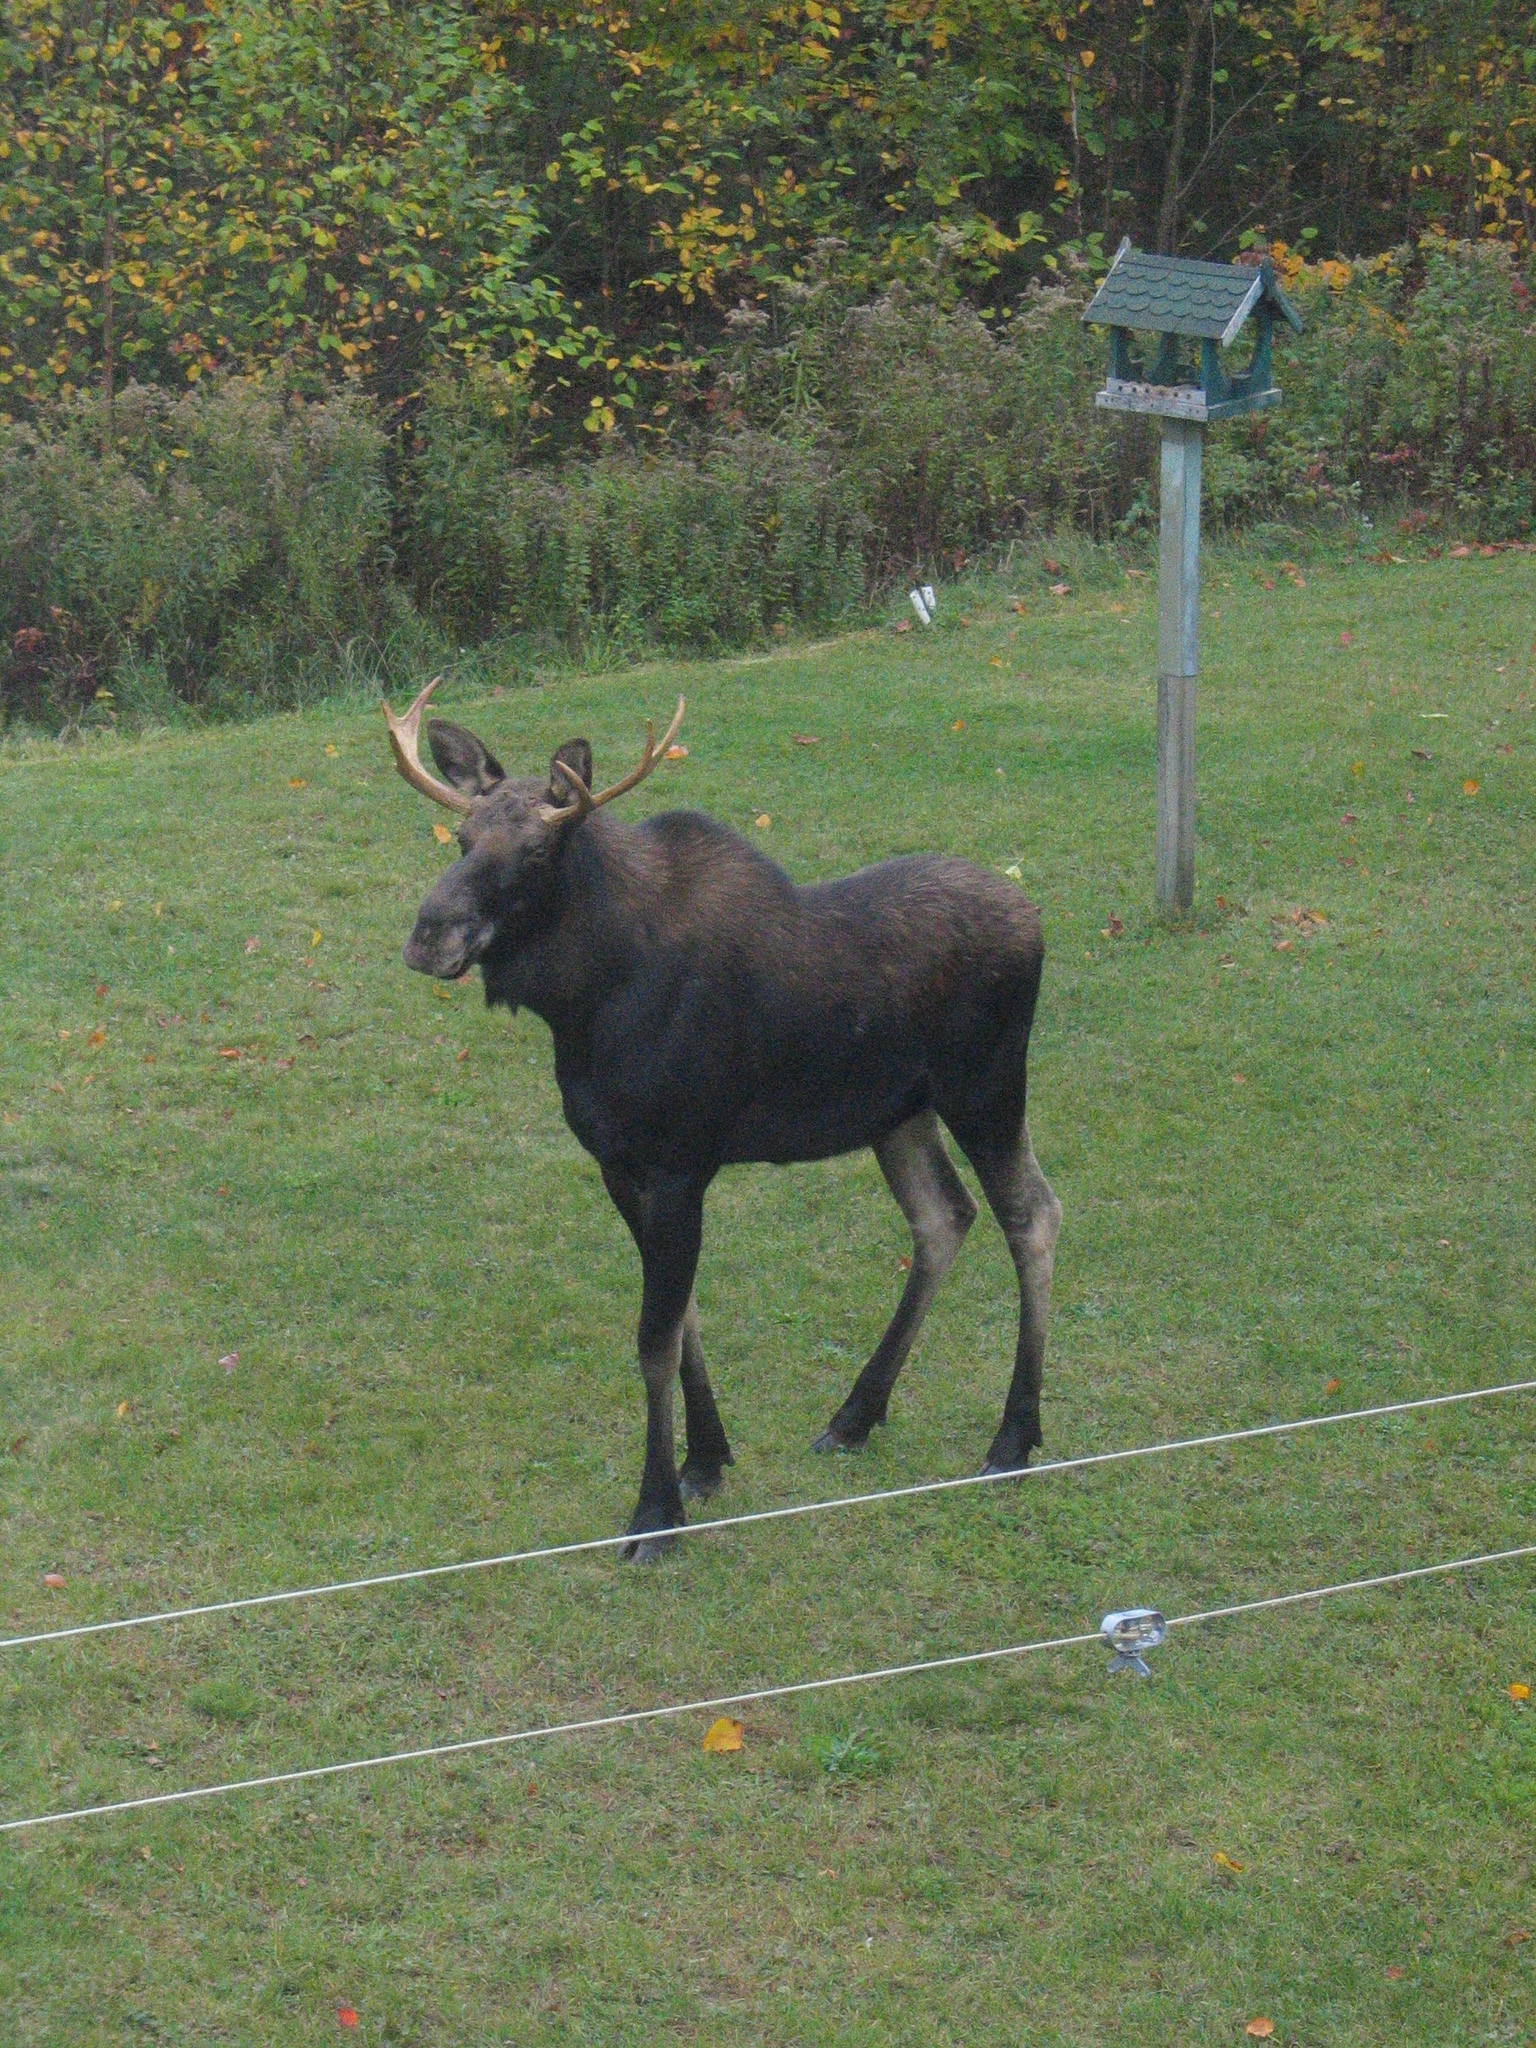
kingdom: Animalia
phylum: Chordata
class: Mammalia
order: Artiodactyla
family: Cervidae
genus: Alces
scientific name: Alces alces
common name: Moose
